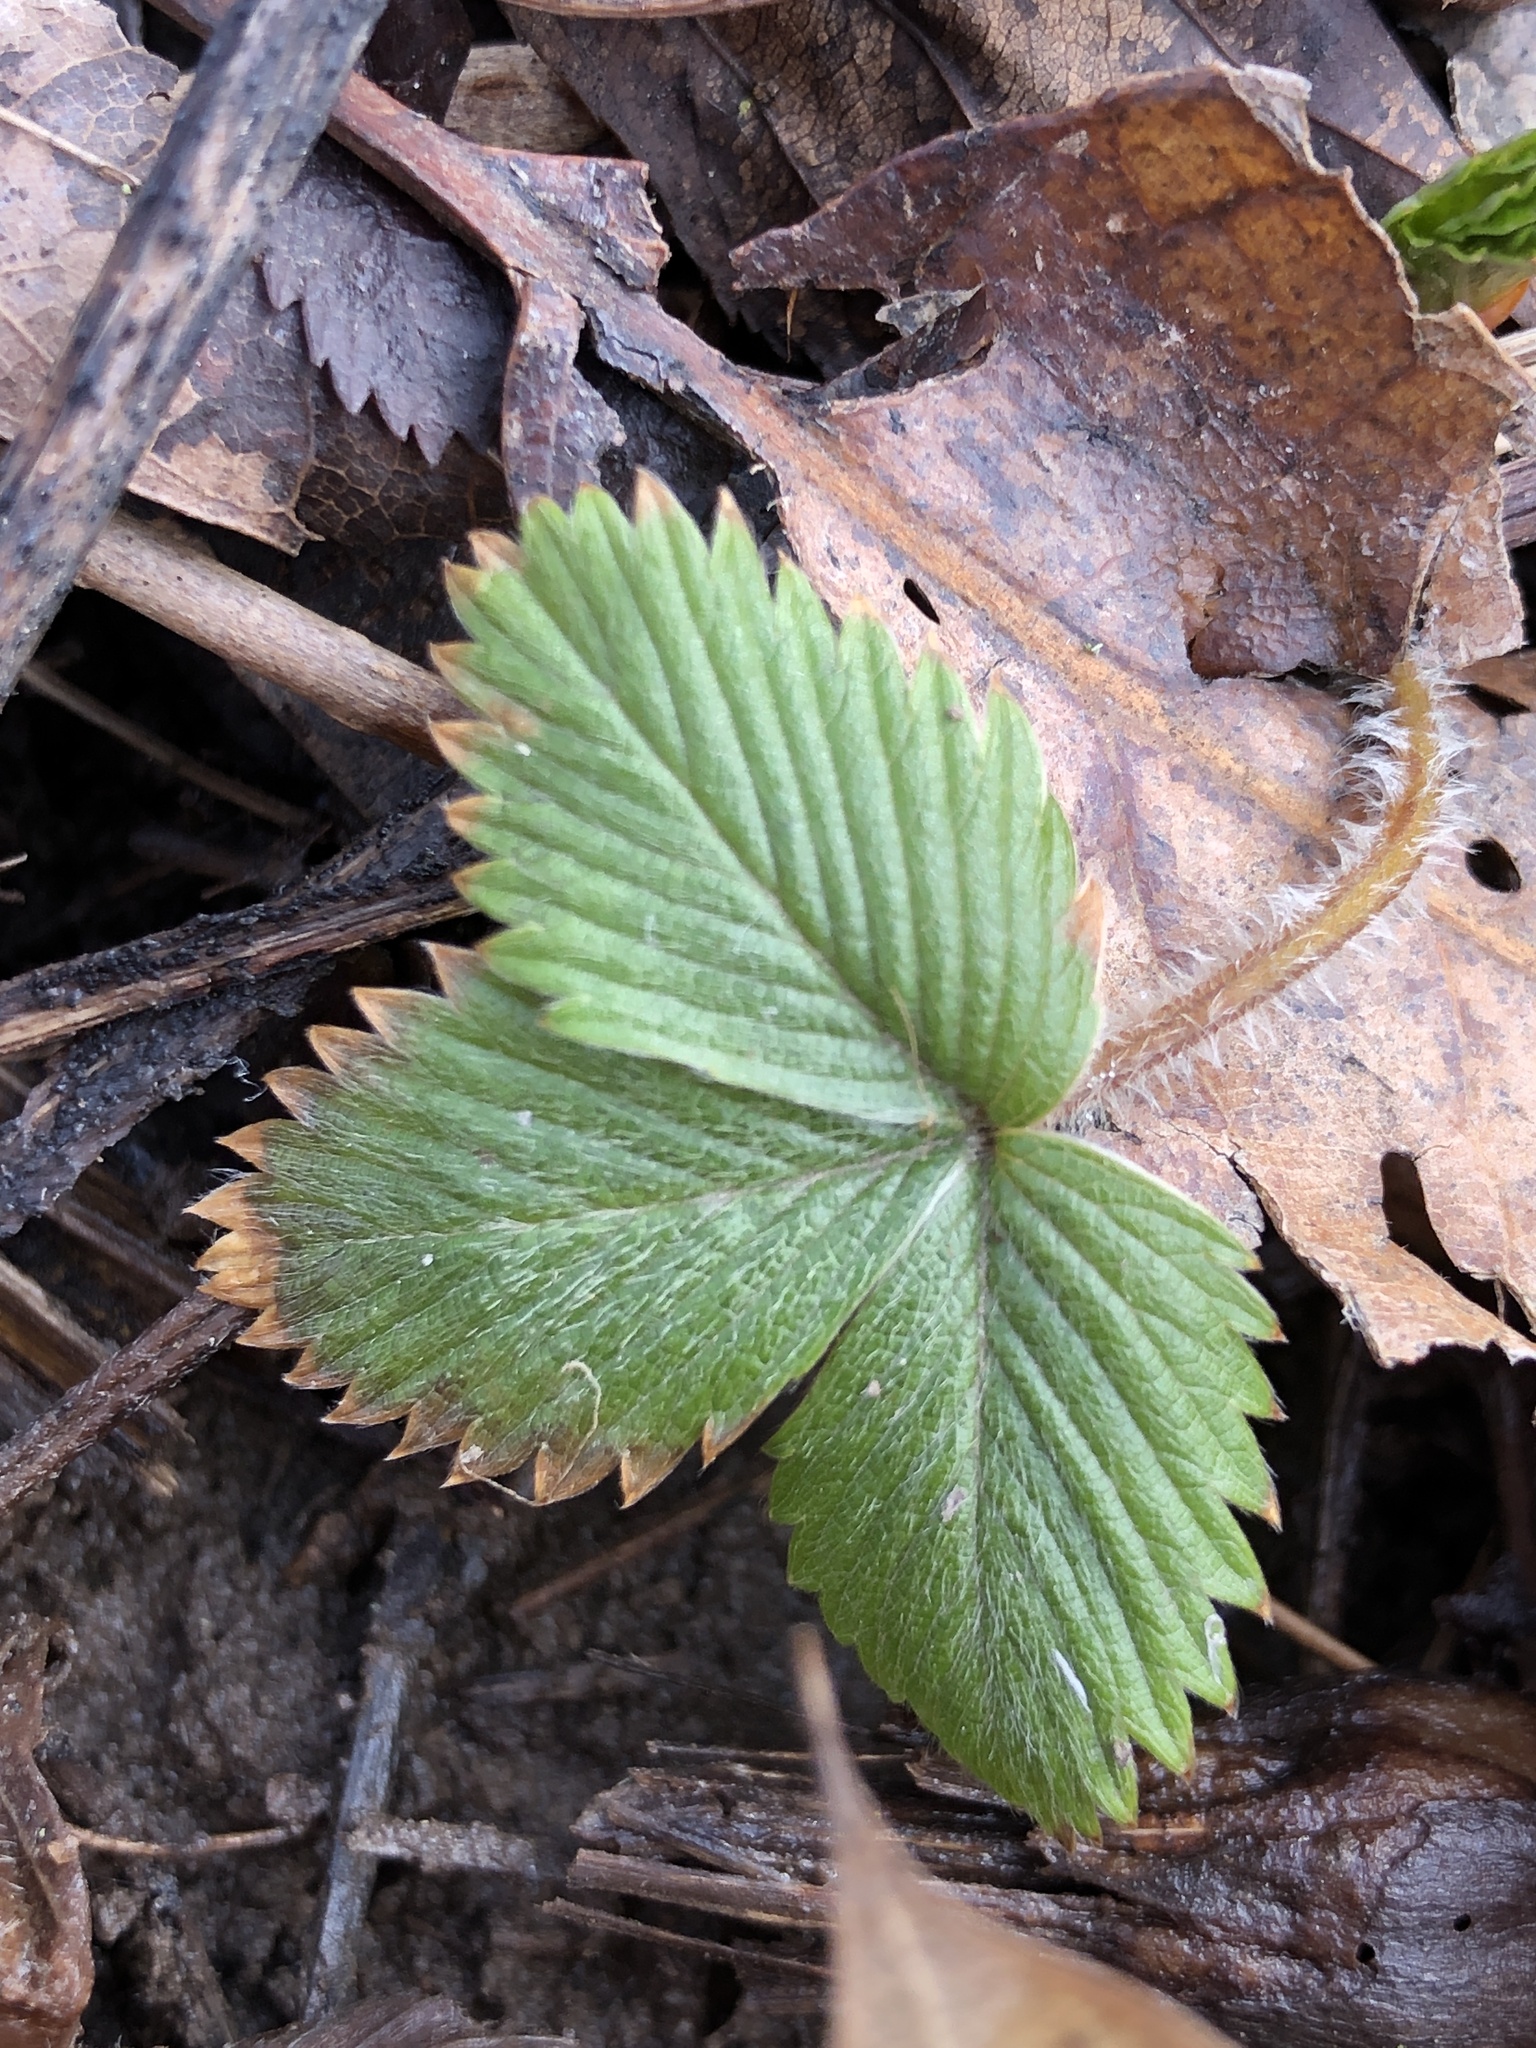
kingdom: Plantae
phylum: Tracheophyta
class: Magnoliopsida
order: Rosales
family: Rosaceae
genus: Fragaria
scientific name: Fragaria virginiana
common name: Thickleaved wild strawberry
